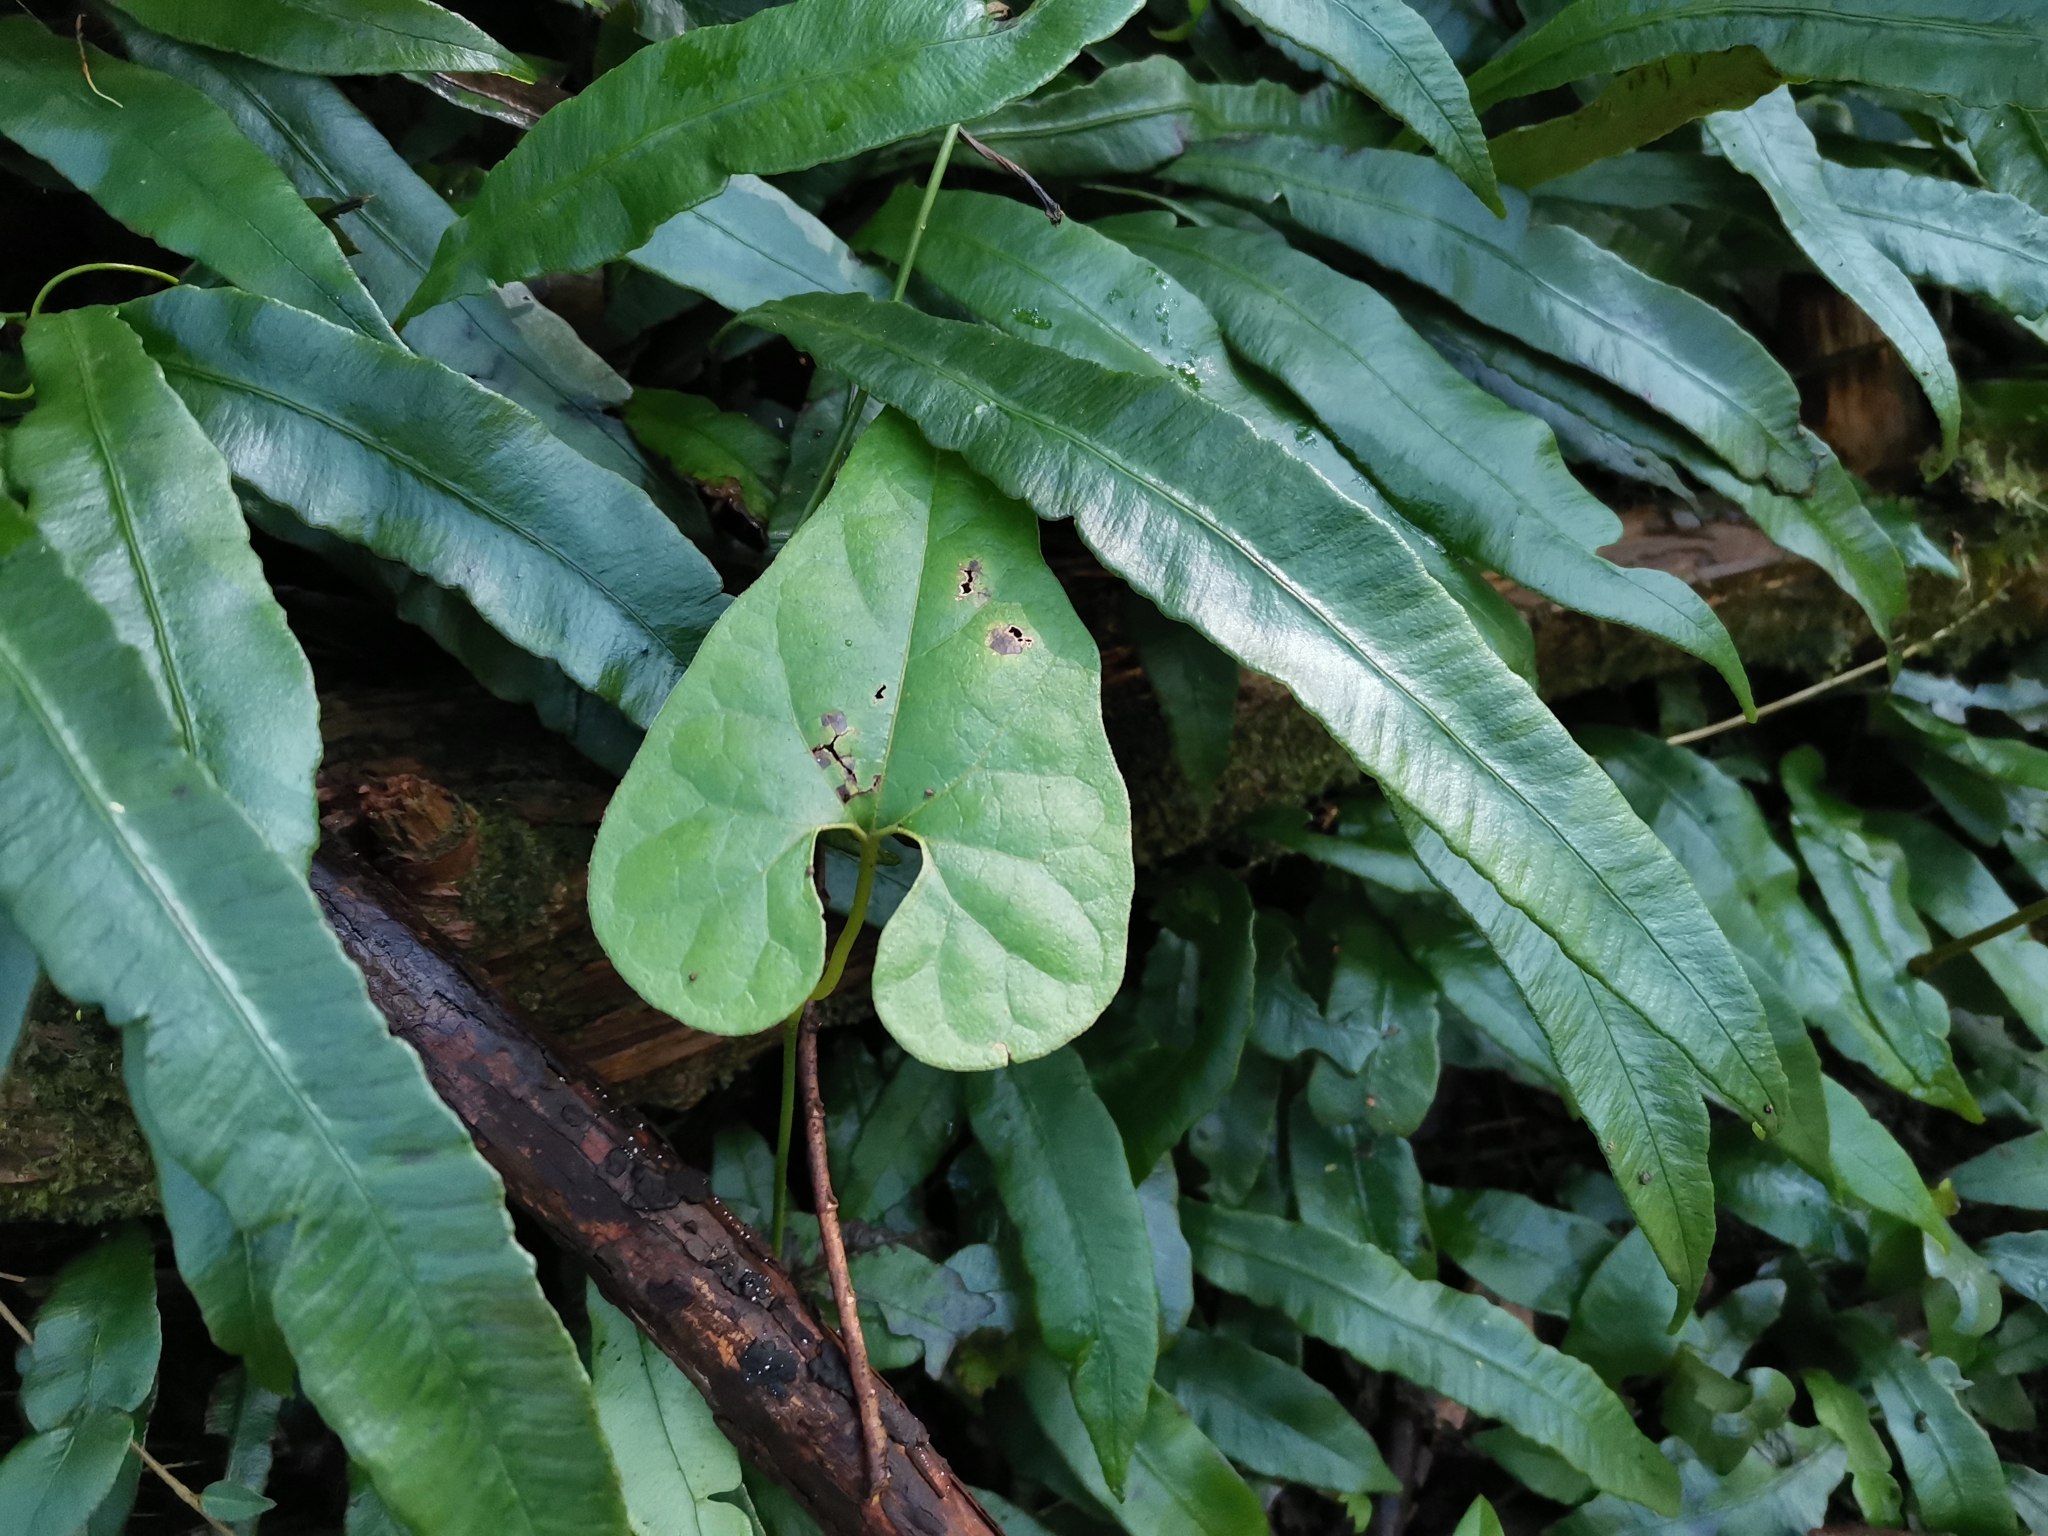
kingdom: Plantae
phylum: Tracheophyta
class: Polypodiopsida
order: Polypodiales
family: Athyriaceae
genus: Deparia
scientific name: Deparia lancea
